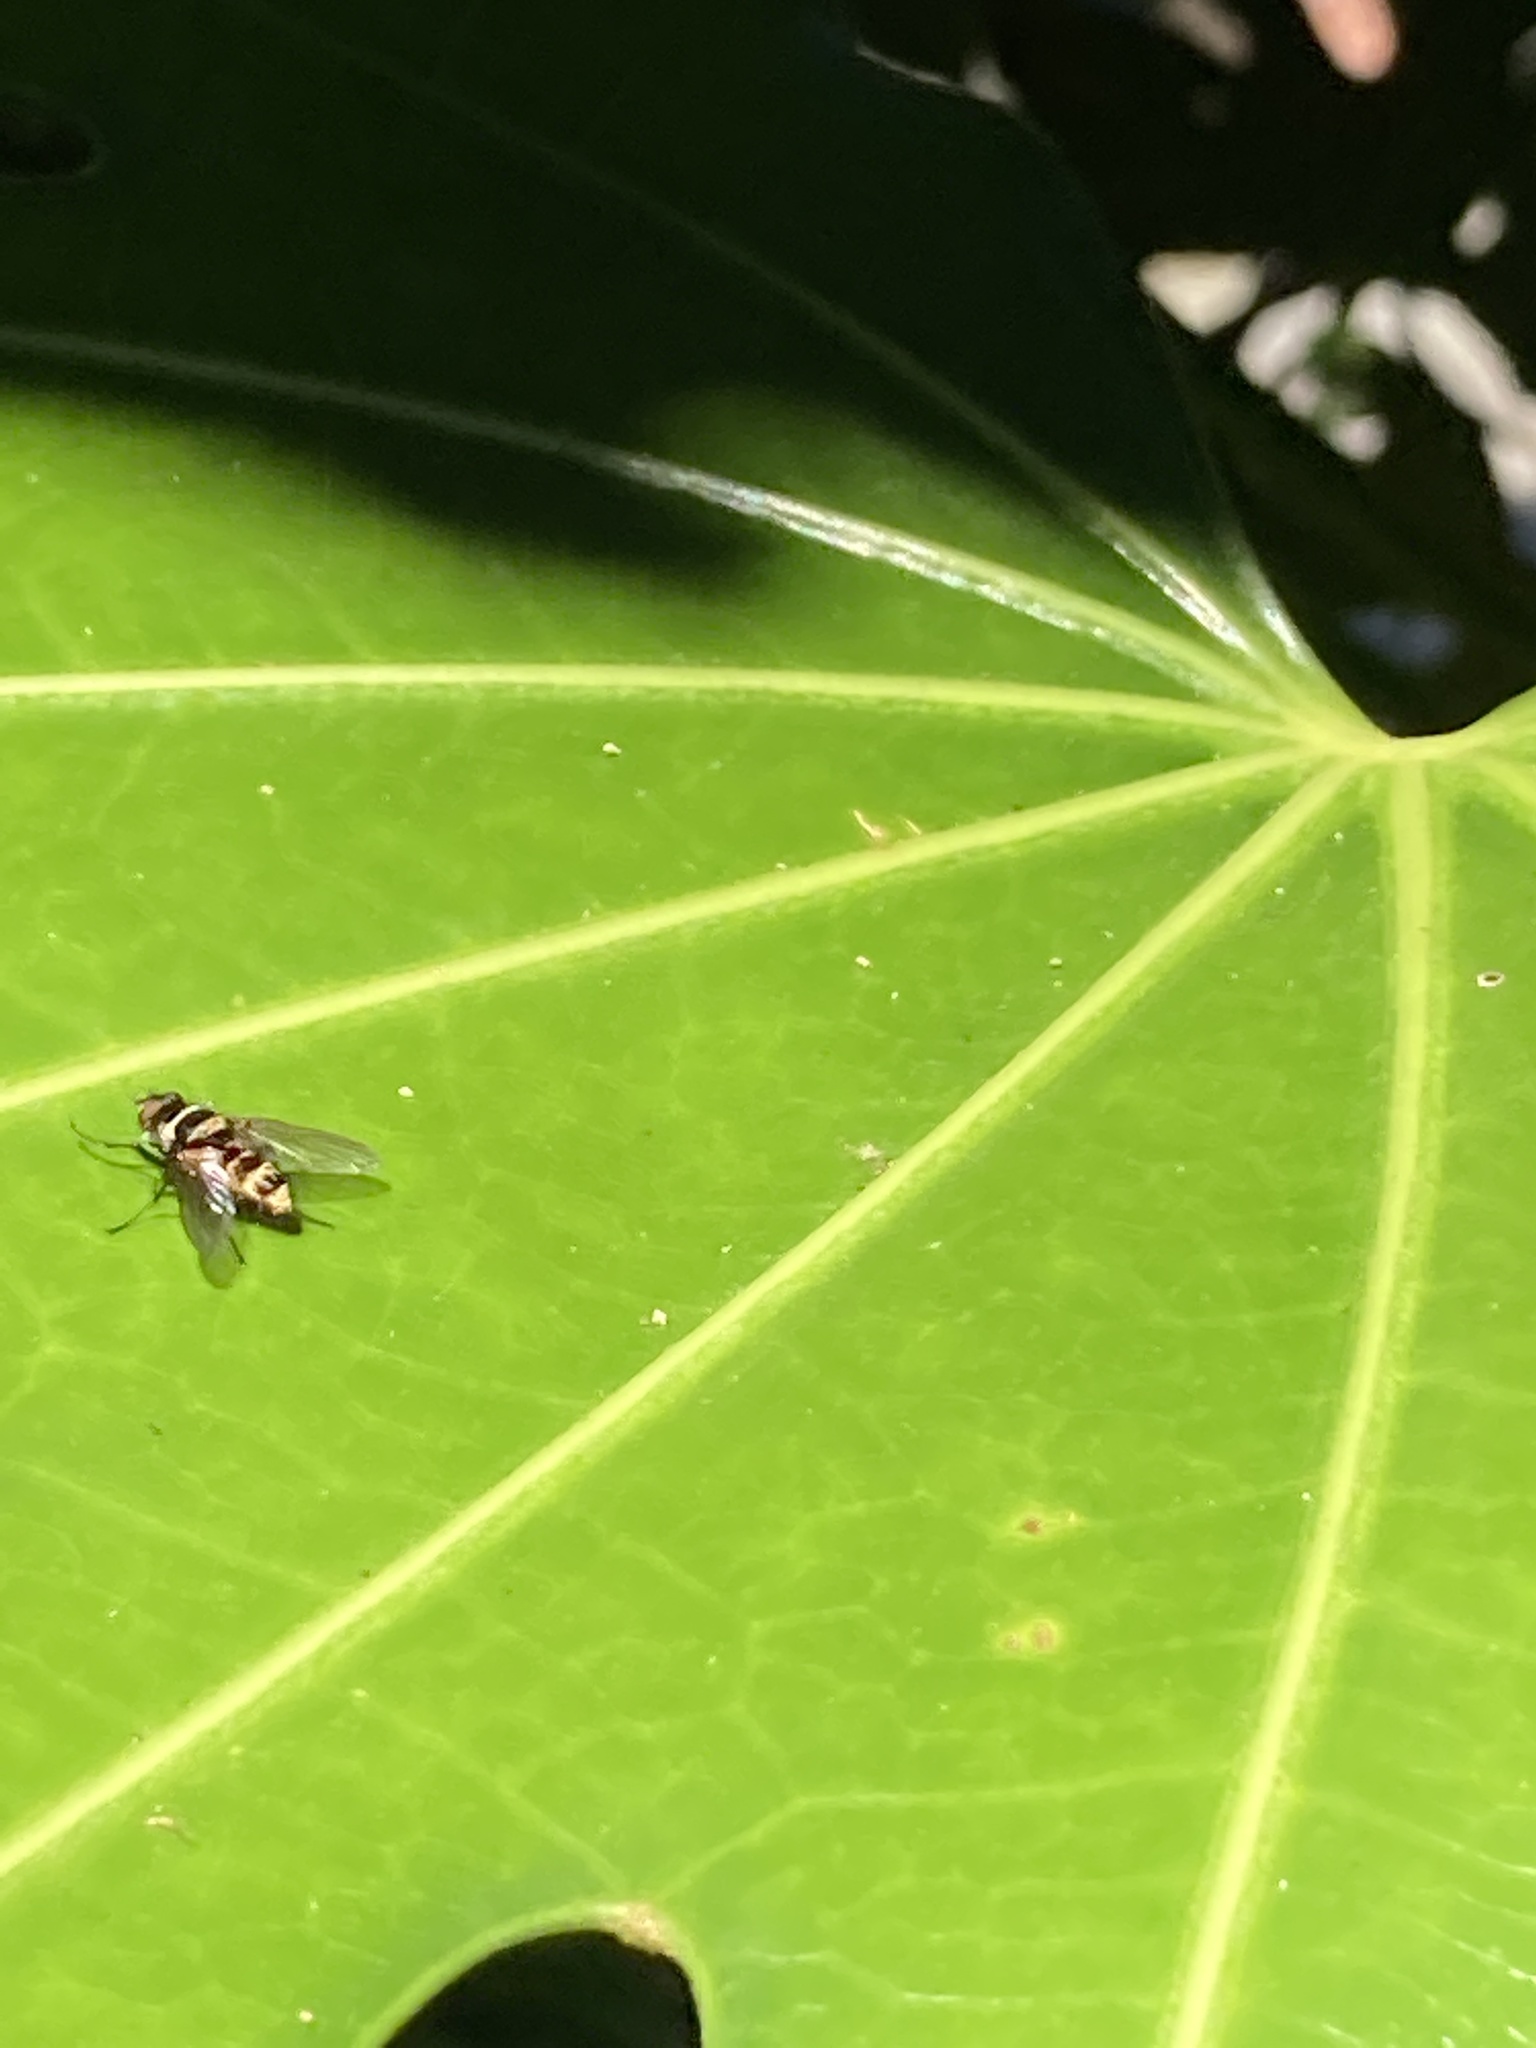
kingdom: Animalia
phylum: Arthropoda
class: Insecta
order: Diptera
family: Tachinidae
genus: Trigonospila
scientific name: Trigonospila brevifacies
